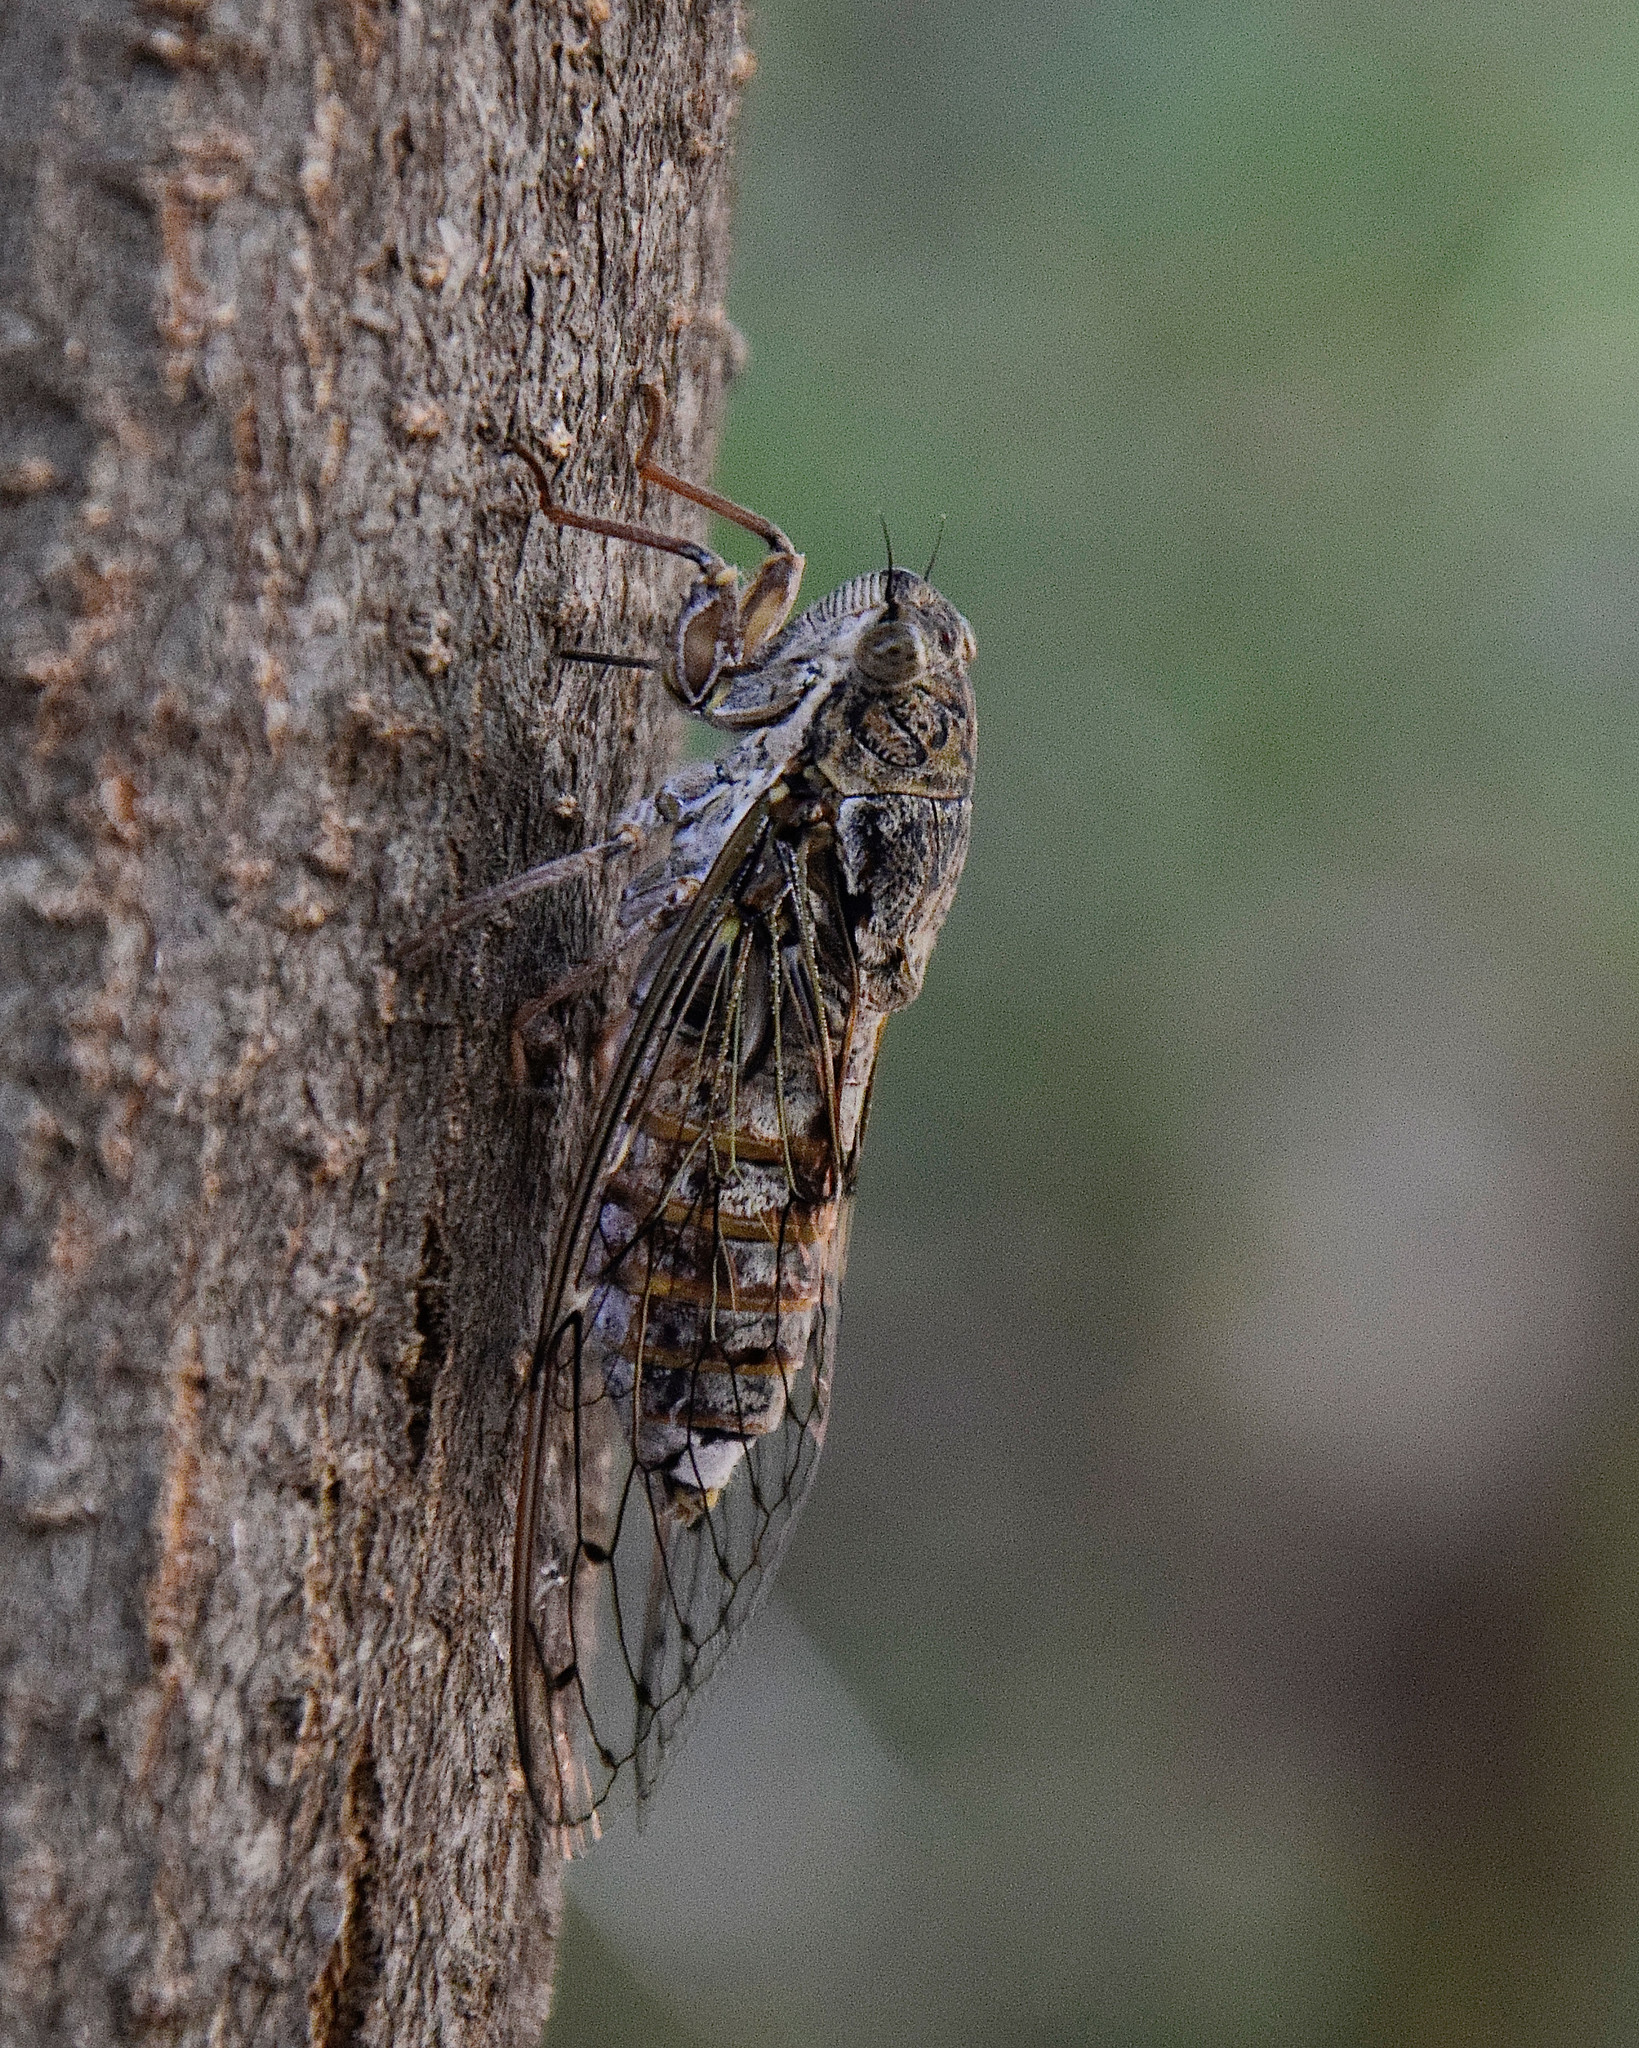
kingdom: Animalia
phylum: Arthropoda
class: Insecta
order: Hemiptera
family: Cicadidae
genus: Cicada
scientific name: Cicada cretensis
